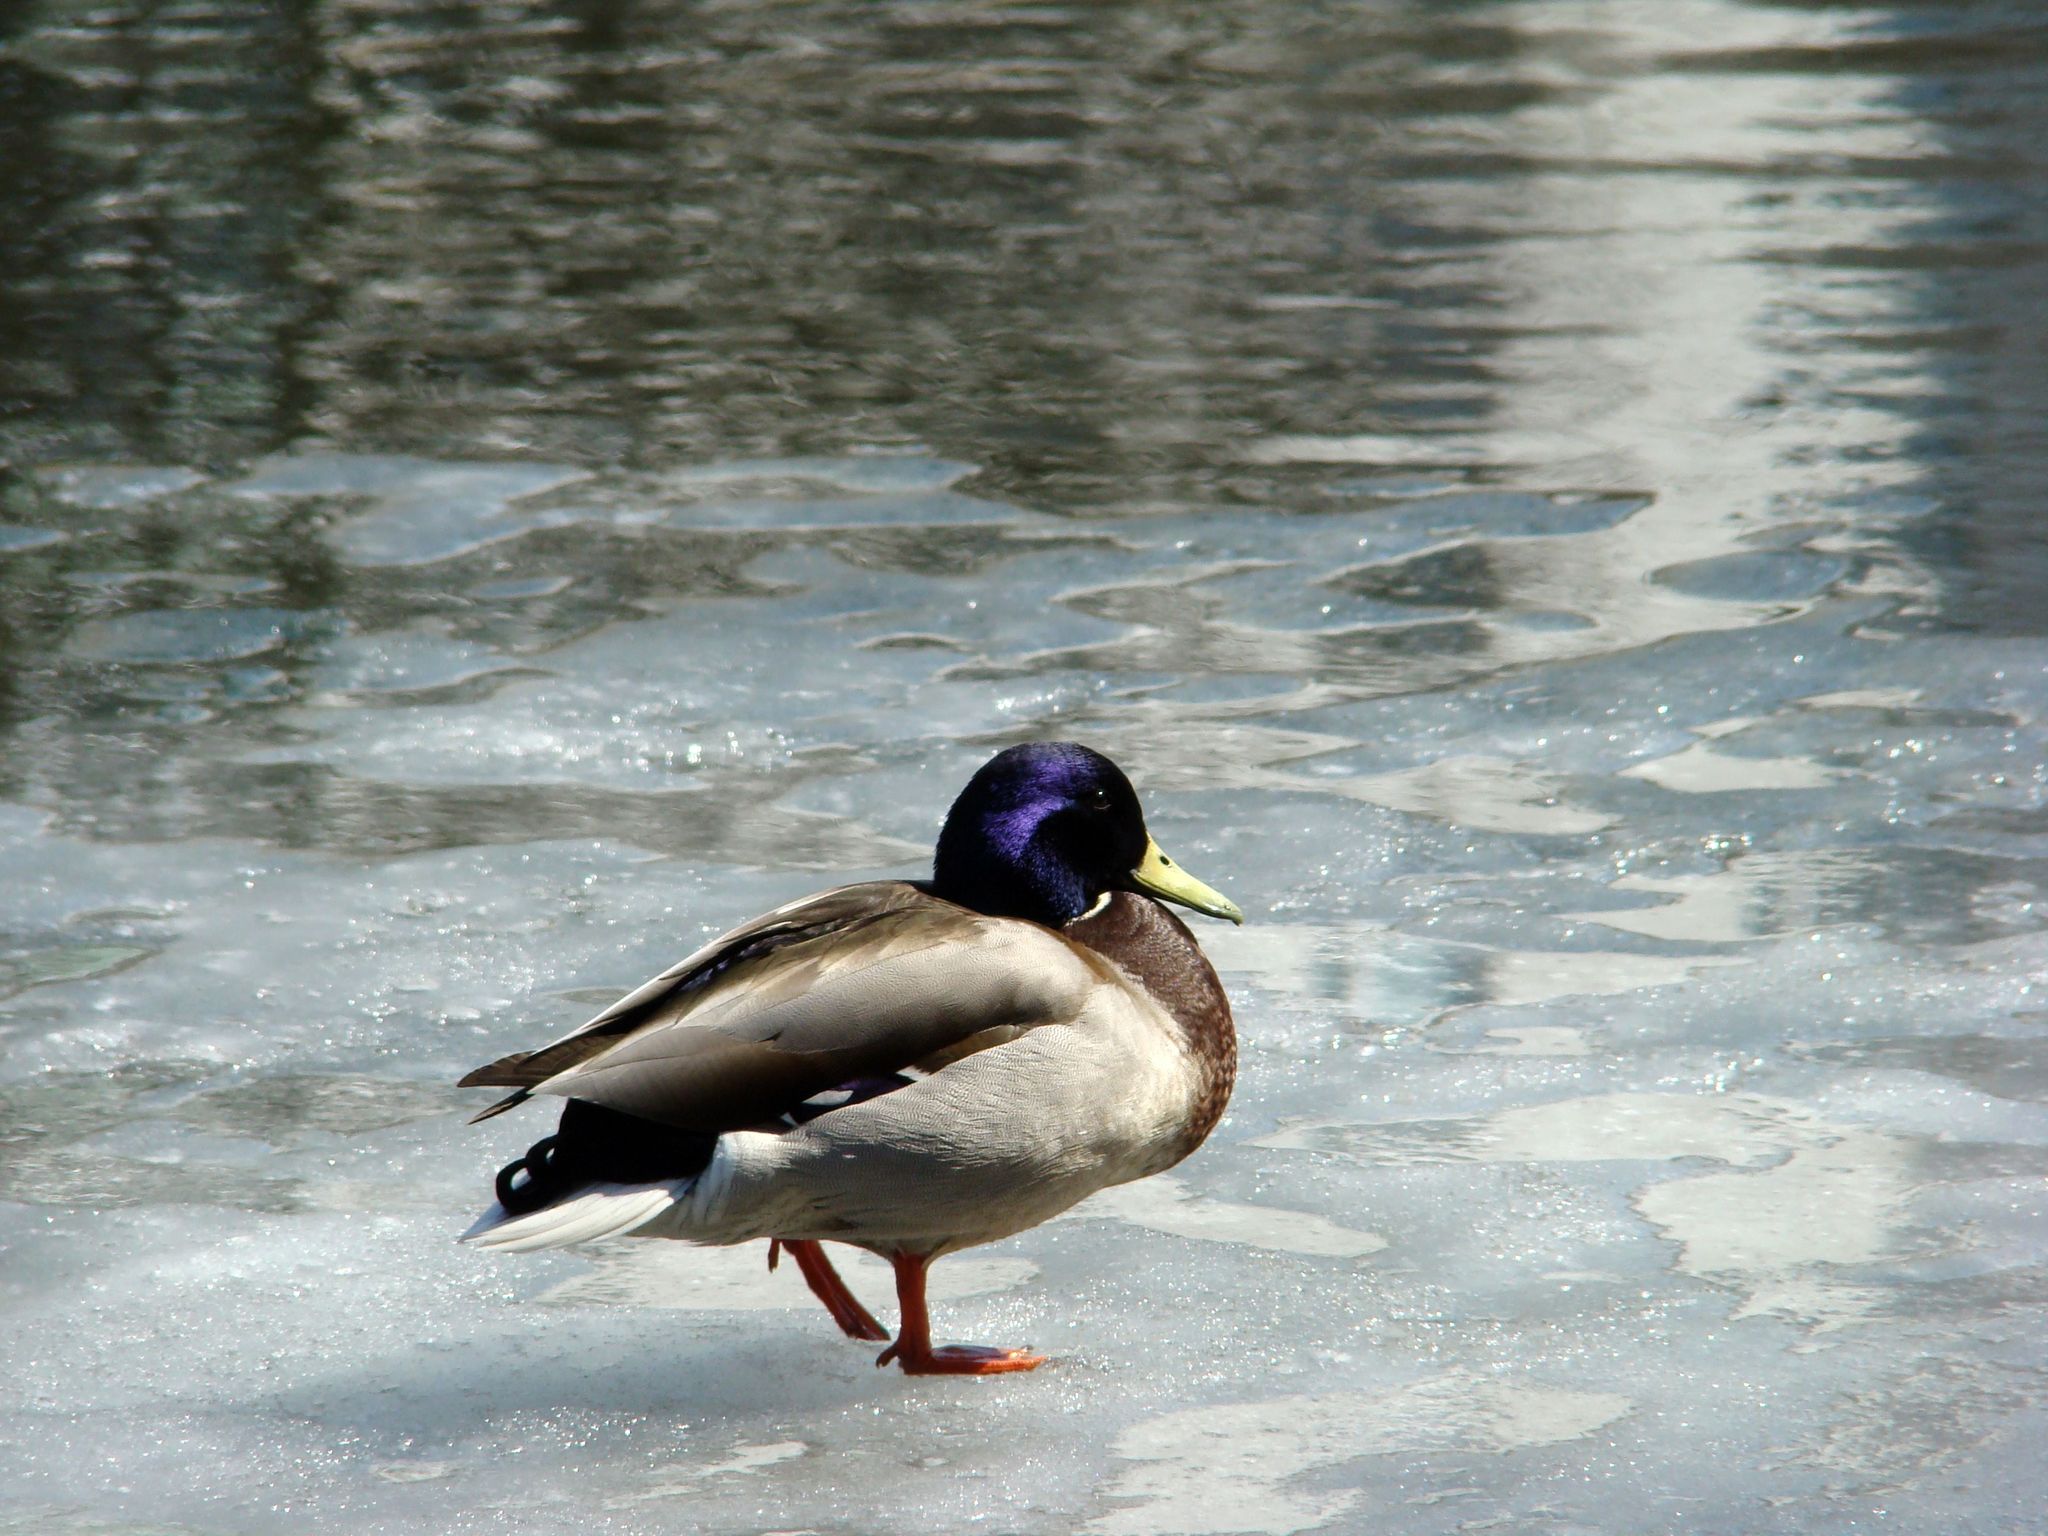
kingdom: Animalia
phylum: Chordata
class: Aves
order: Anseriformes
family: Anatidae
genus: Anas
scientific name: Anas platyrhynchos
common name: Mallard
